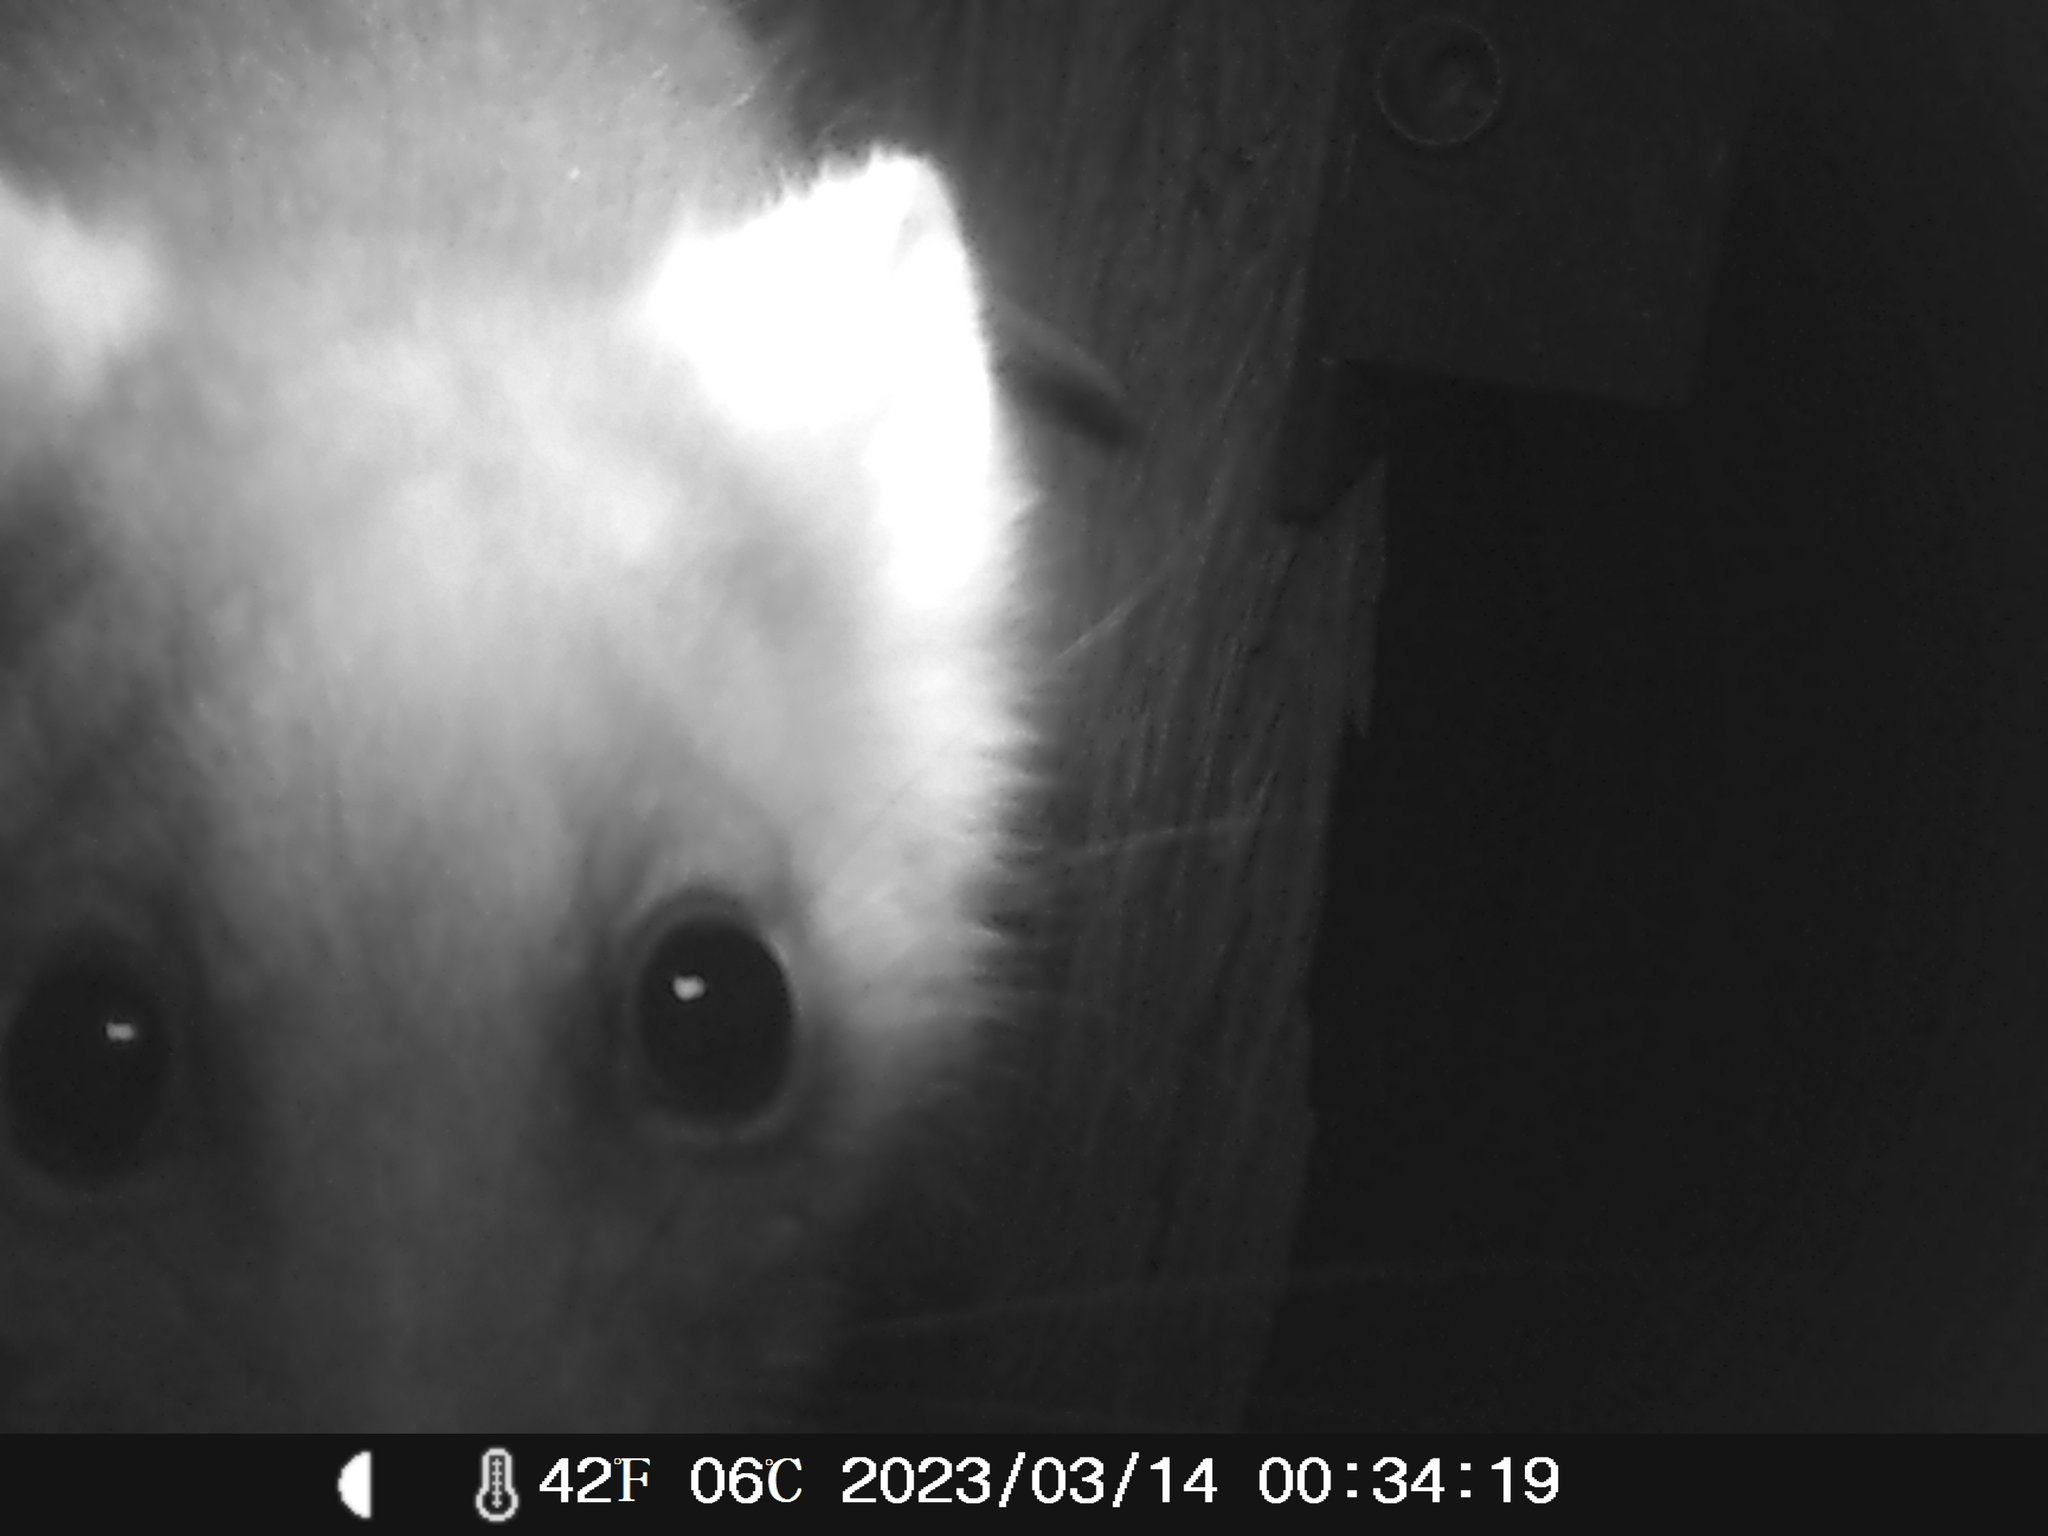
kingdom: Animalia
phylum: Chordata
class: Mammalia
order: Diprotodontia
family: Pseudocheiridae
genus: Pseudocheirus
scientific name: Pseudocheirus peregrinus
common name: Common ringtail possum
